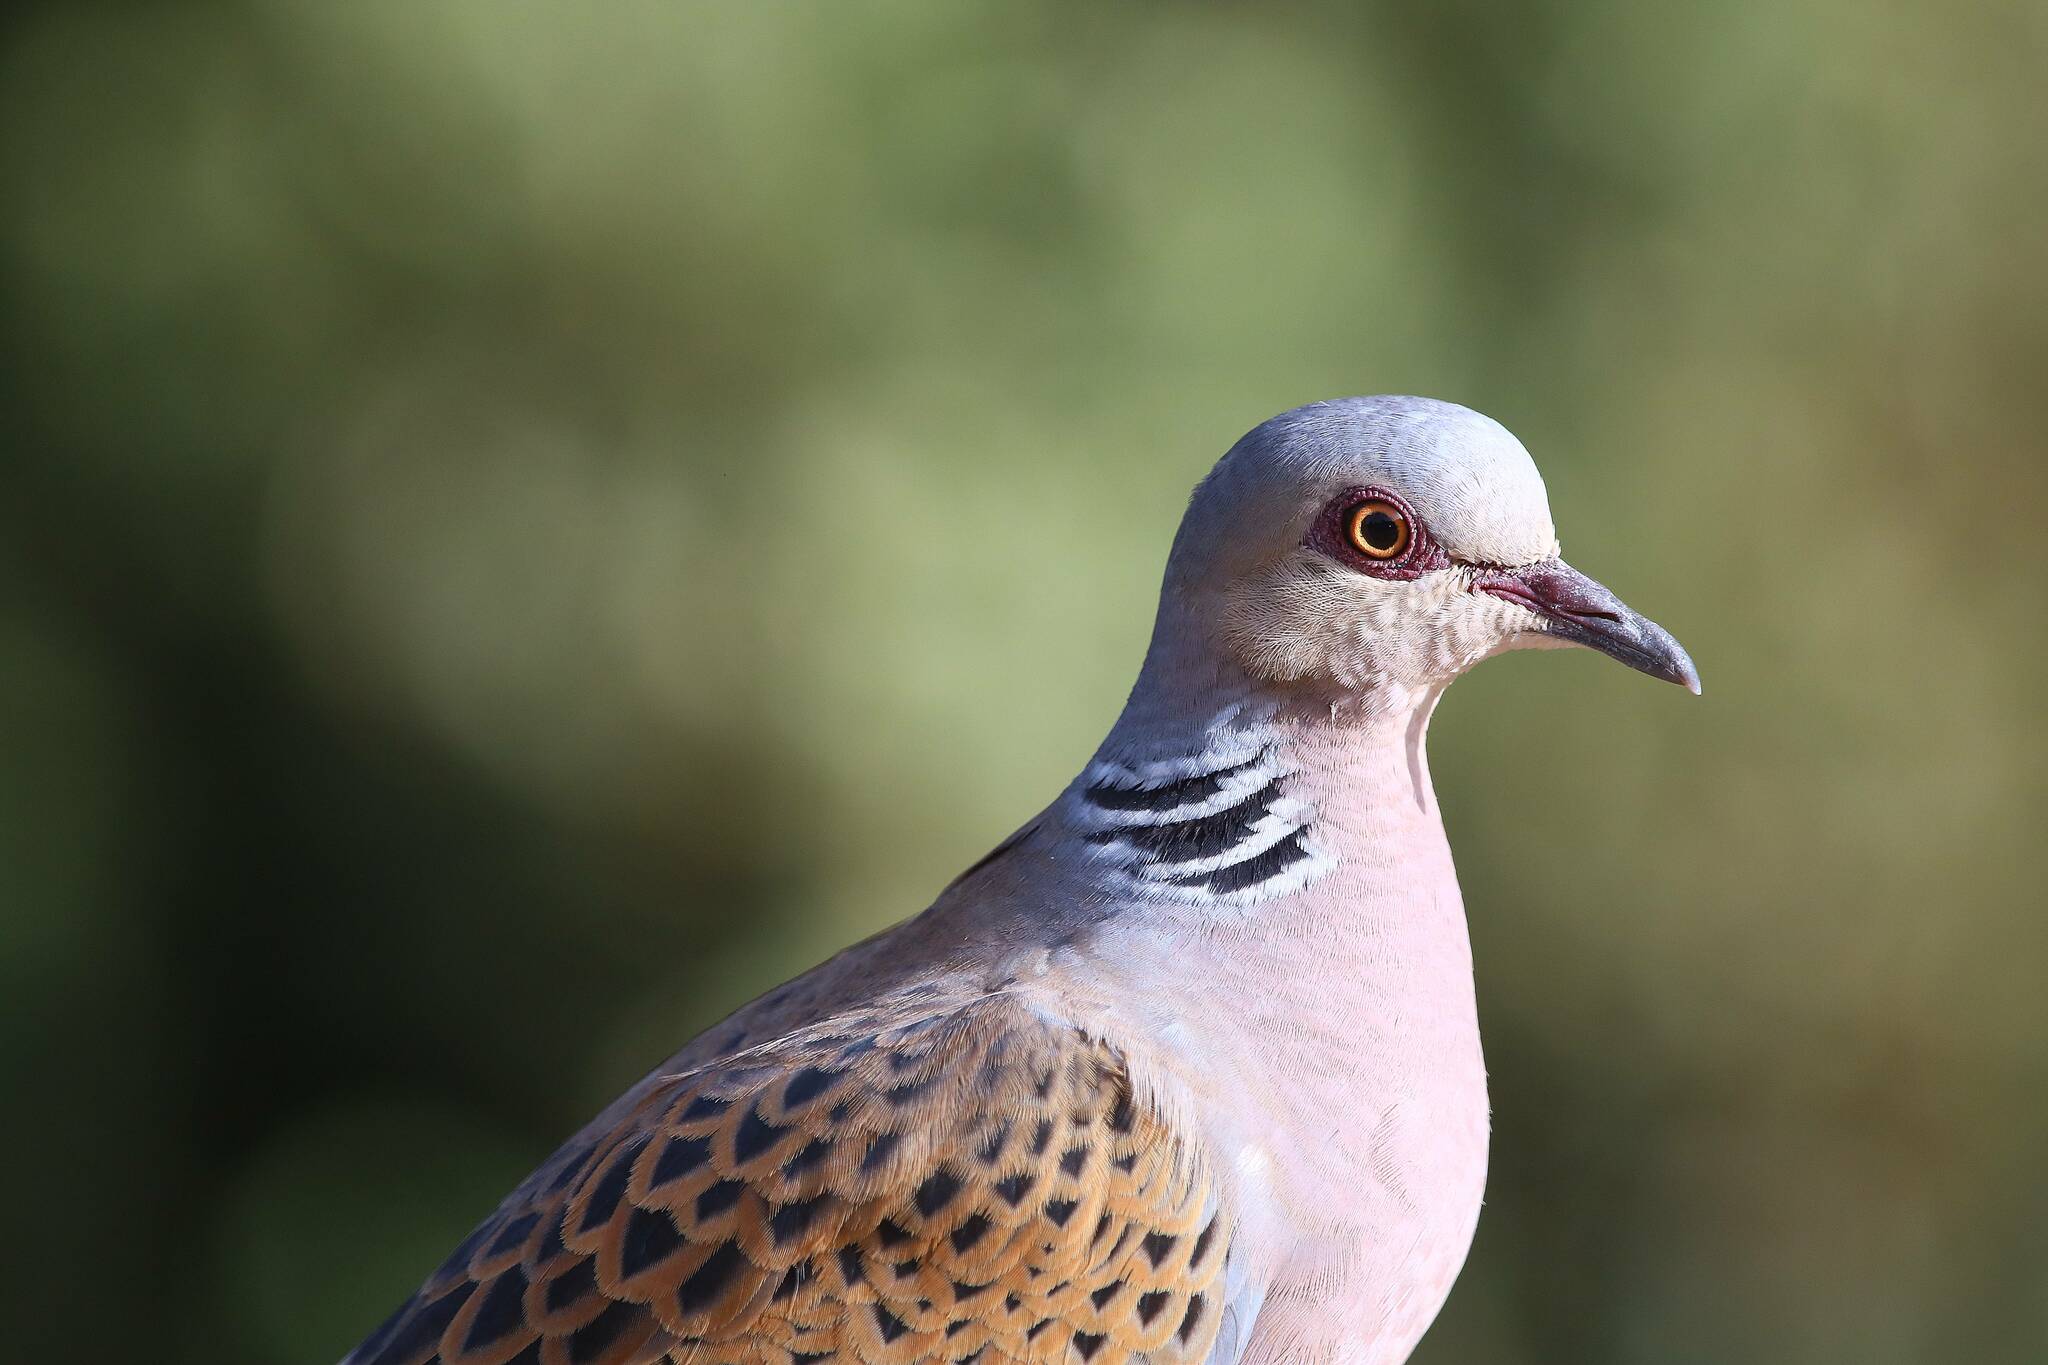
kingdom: Animalia
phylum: Chordata
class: Aves
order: Columbiformes
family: Columbidae
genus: Streptopelia
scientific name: Streptopelia turtur
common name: European turtle dove
